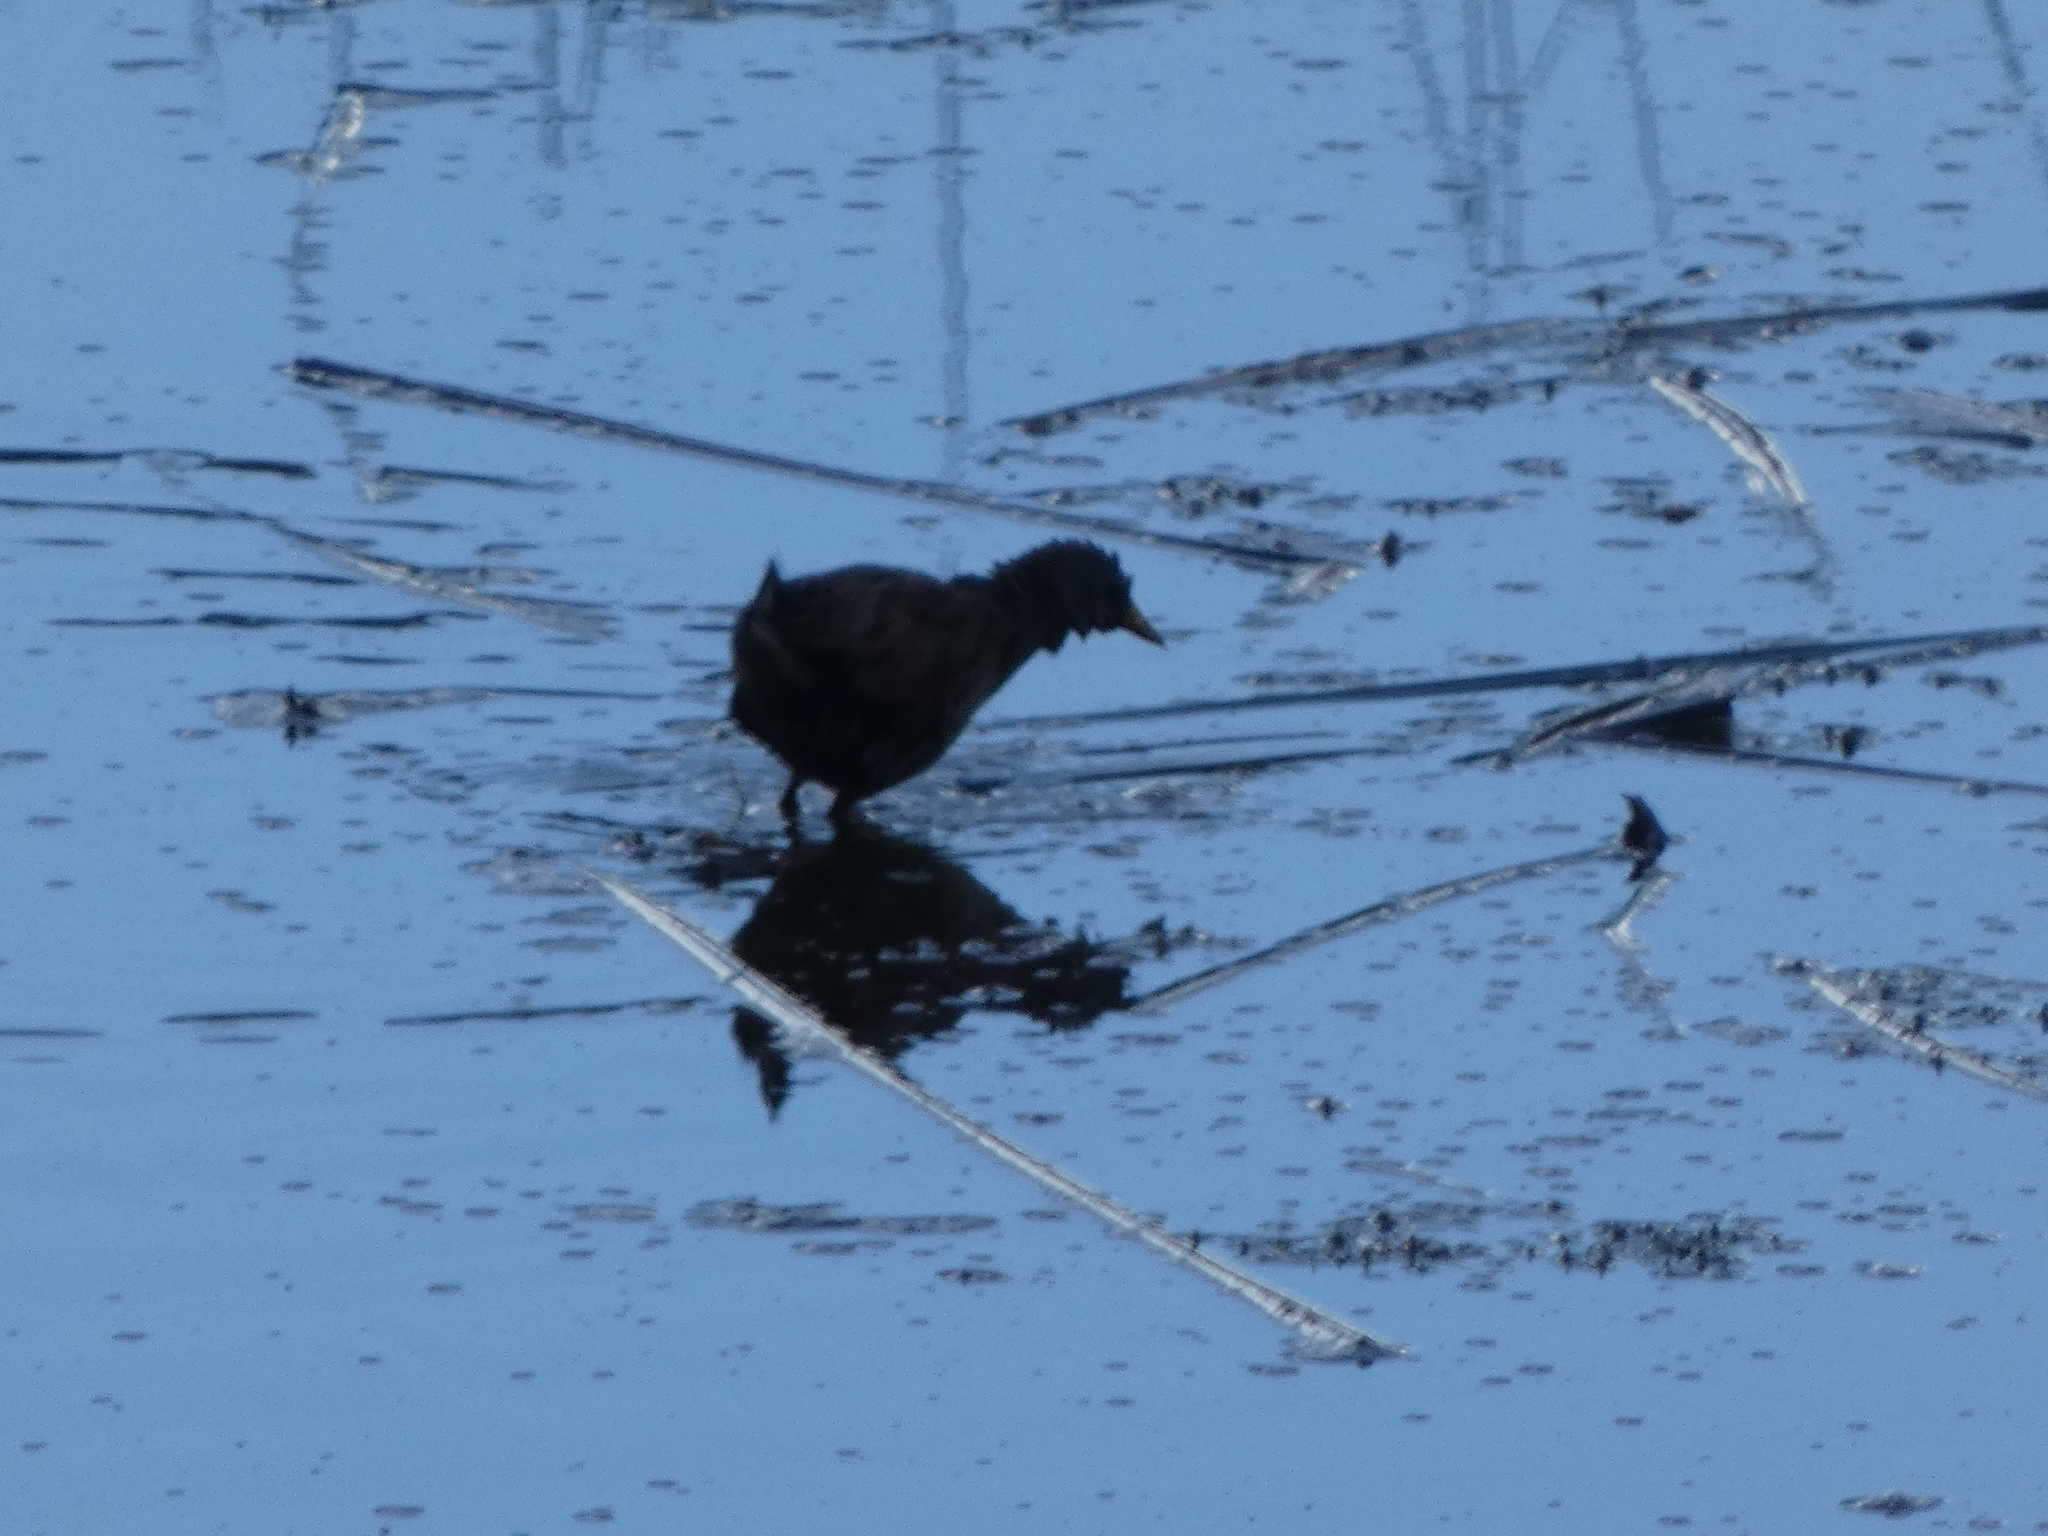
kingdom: Animalia
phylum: Chordata
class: Aves
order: Gruiformes
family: Rallidae
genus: Porzana
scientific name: Porzana carolina
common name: Sora
